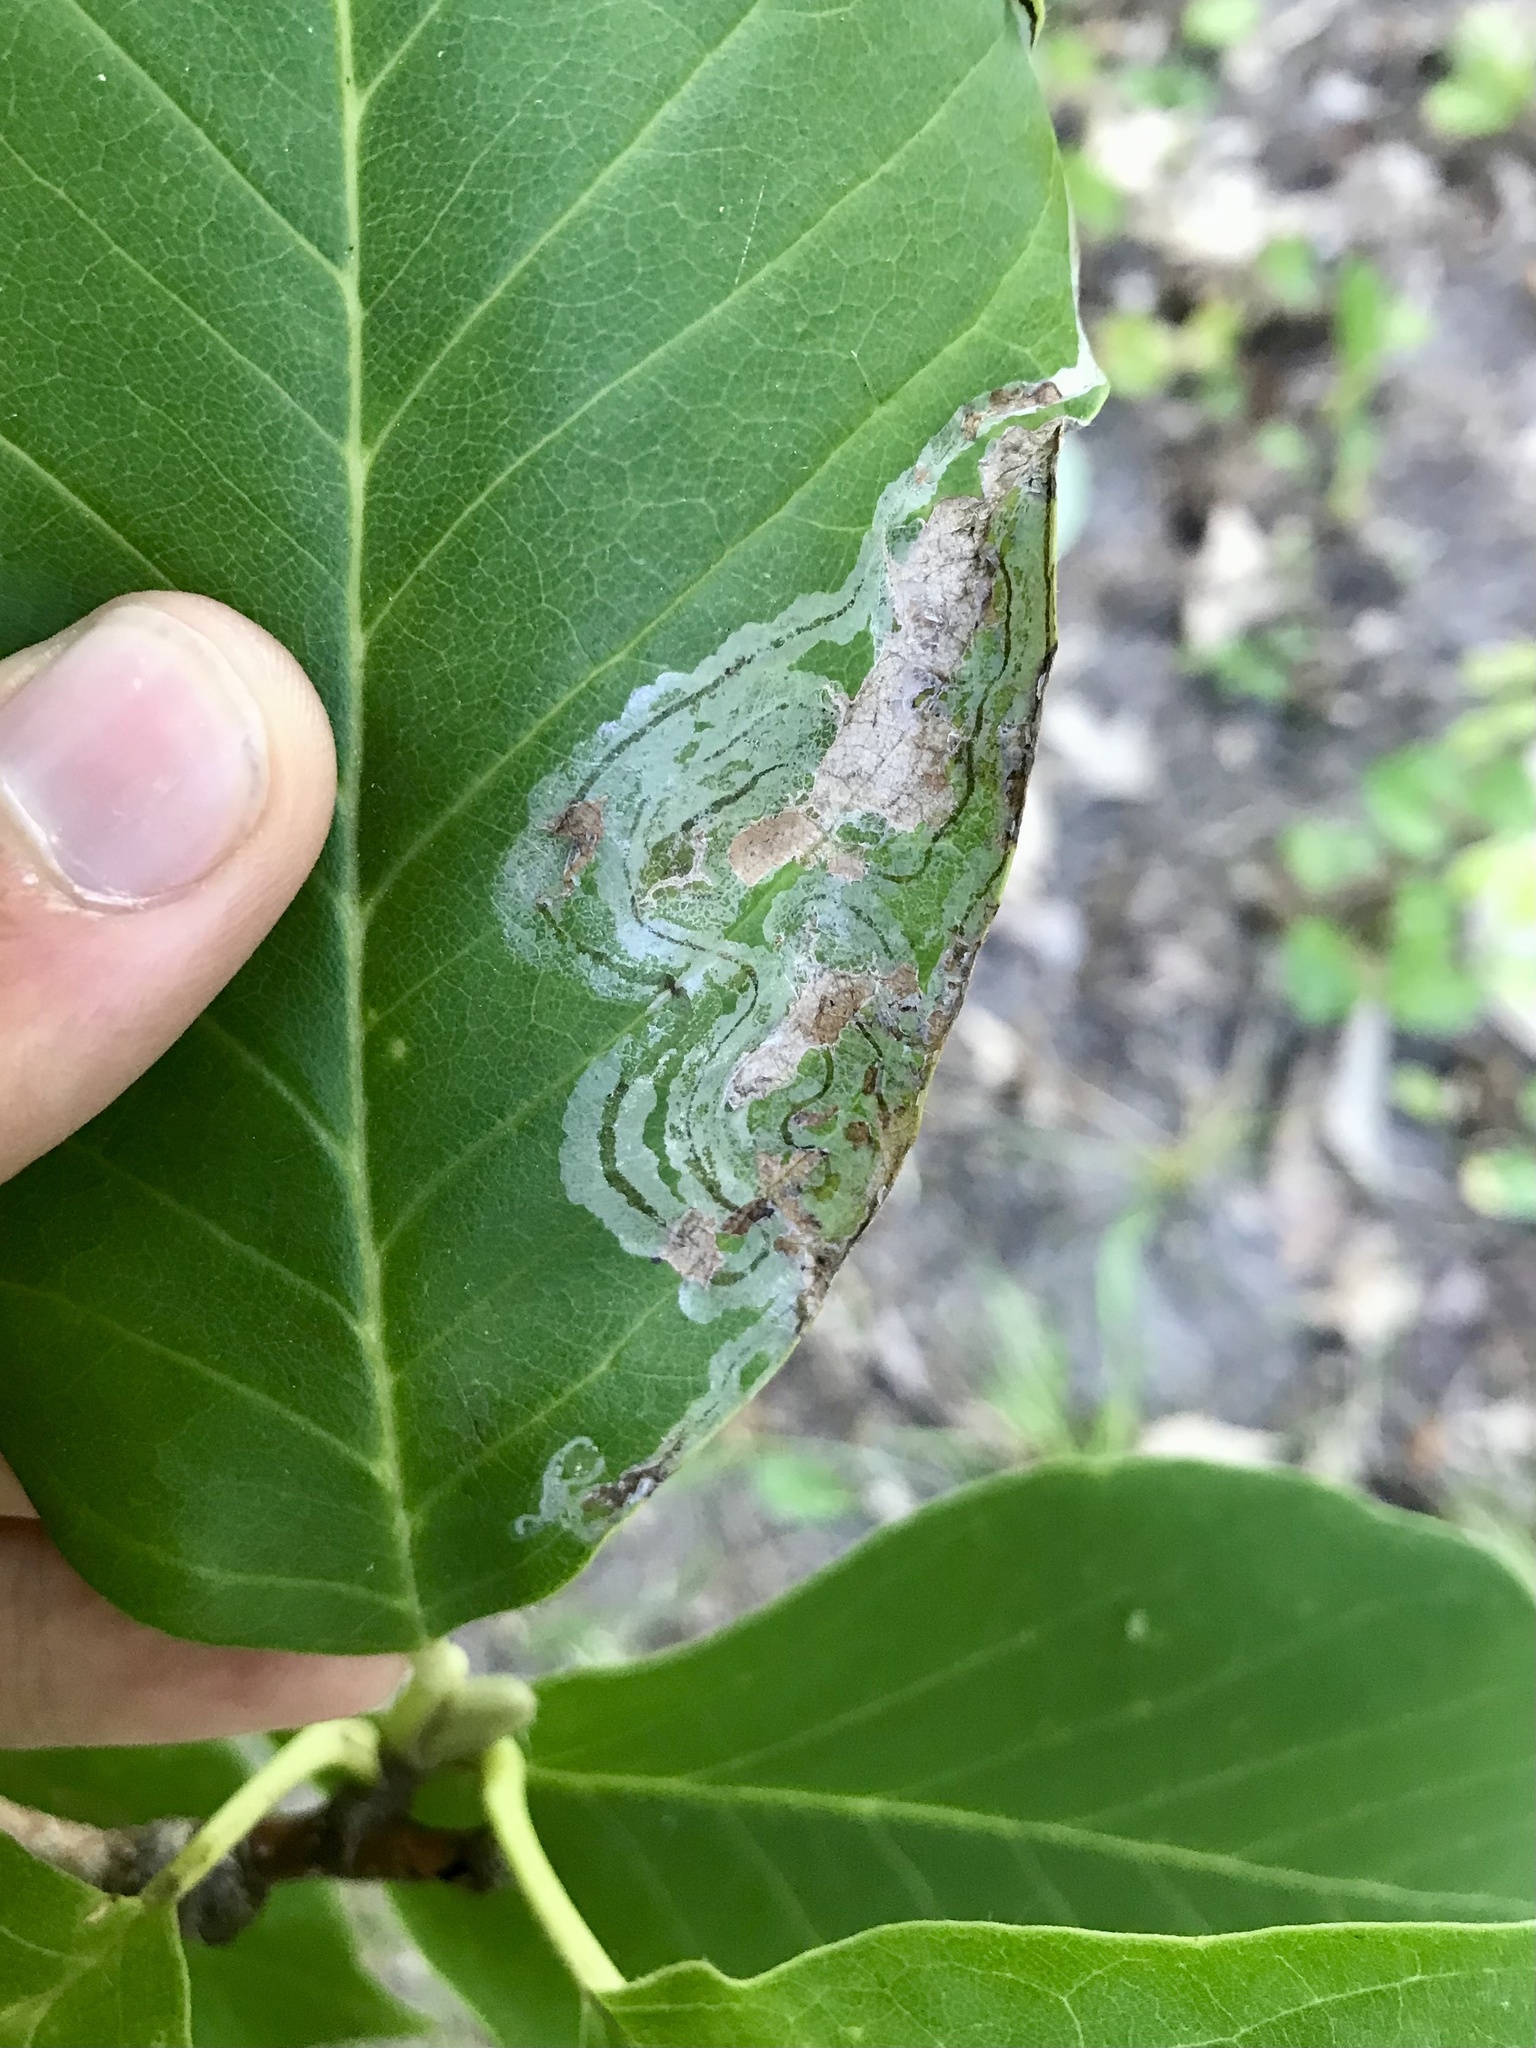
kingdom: Animalia
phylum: Arthropoda
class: Insecta
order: Lepidoptera
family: Gracillariidae
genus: Phyllocnistis
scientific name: Phyllocnistis liriodendronella
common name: Tulip tree leaf miner
